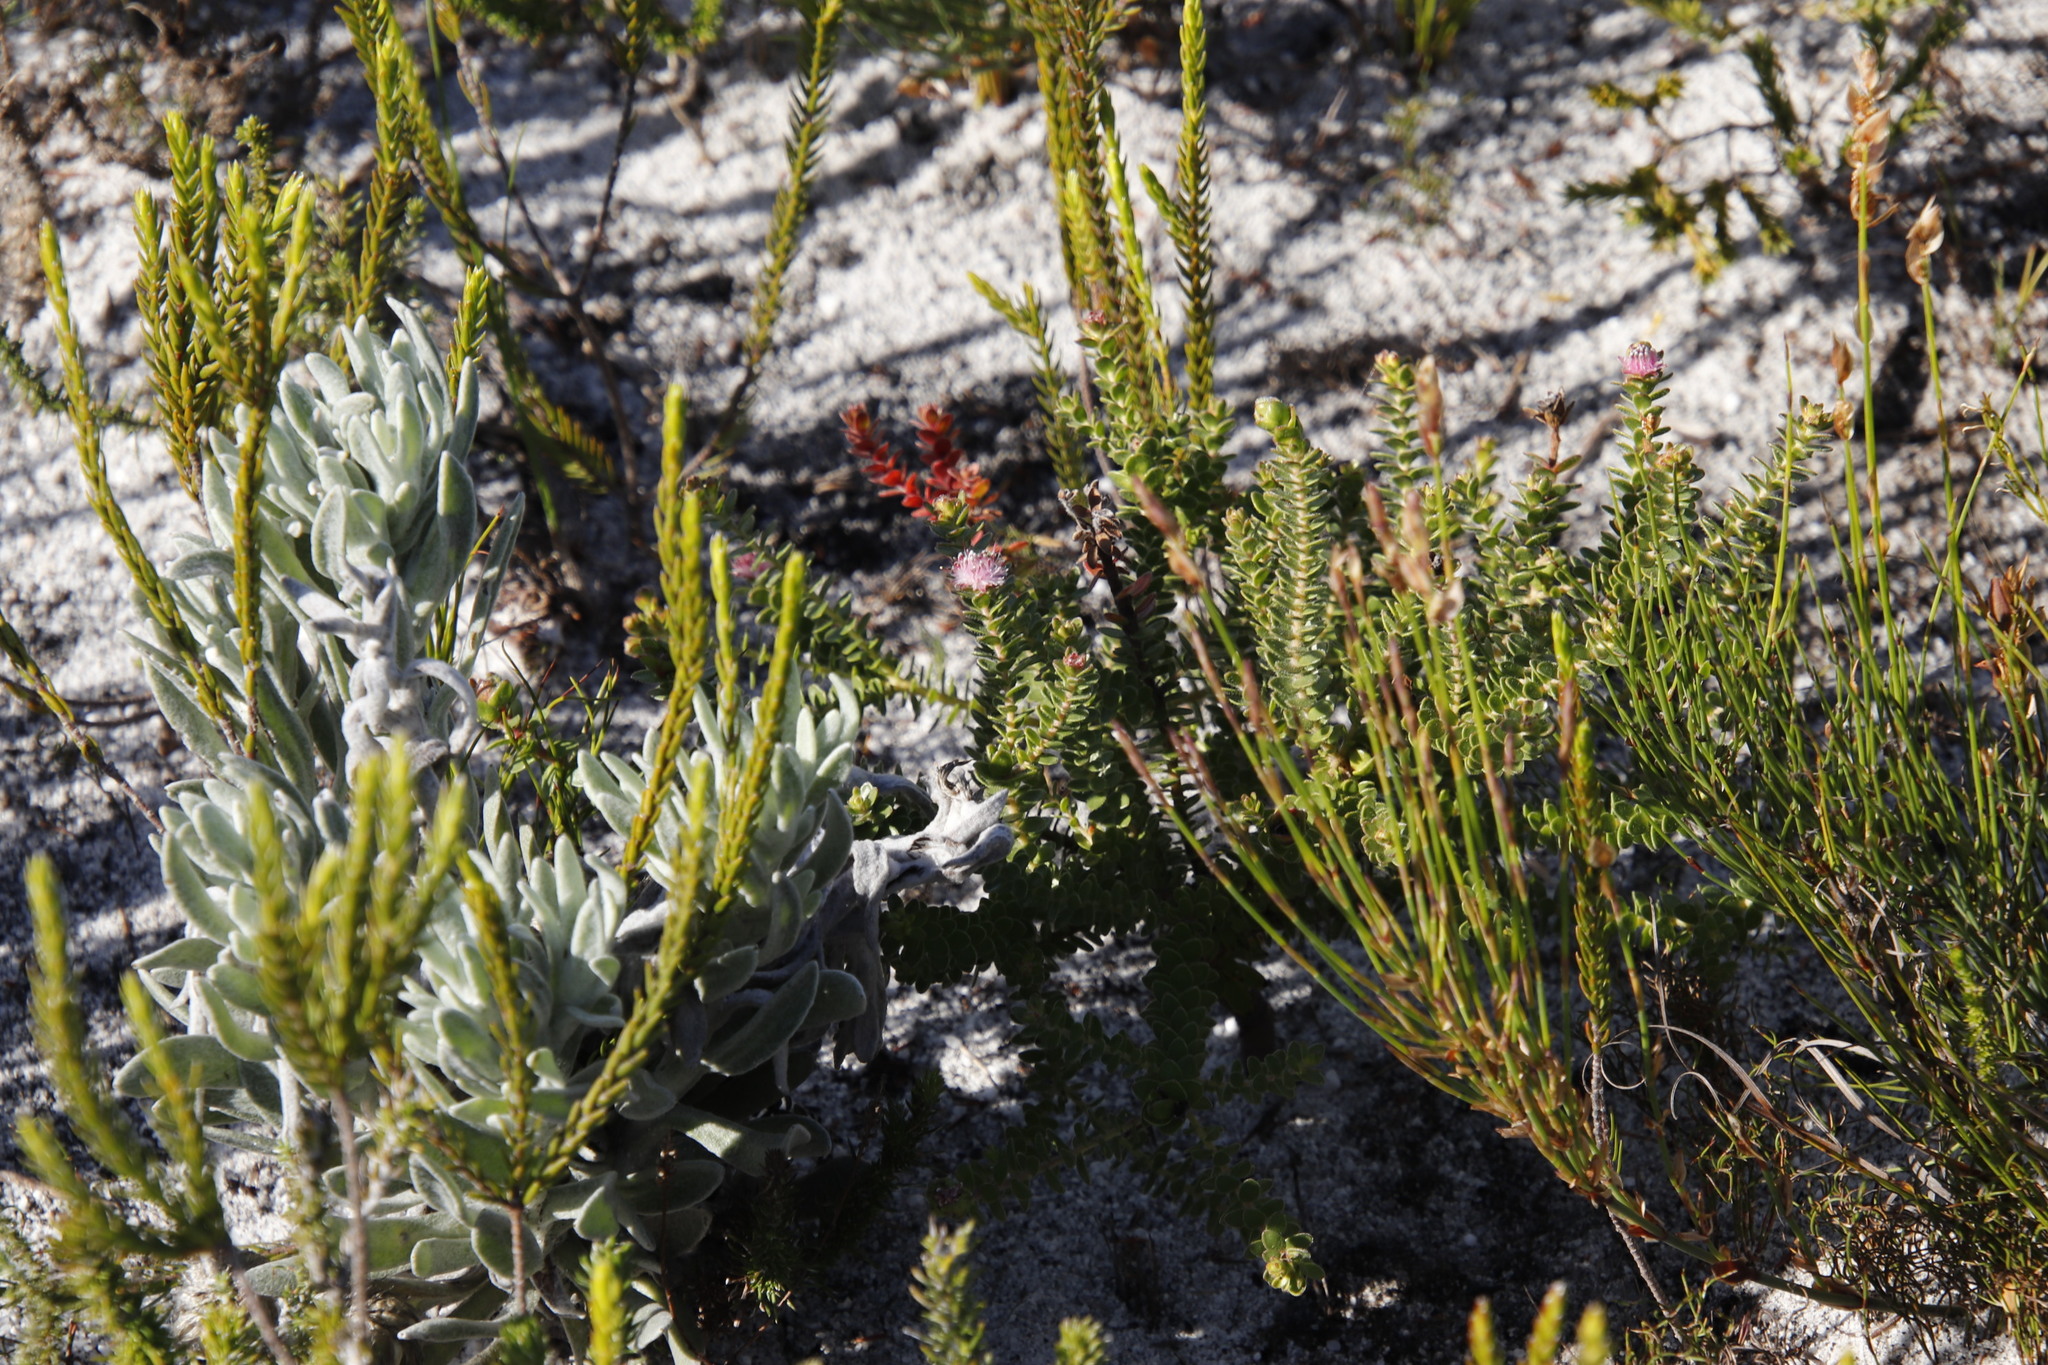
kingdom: Plantae
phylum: Tracheophyta
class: Magnoliopsida
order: Proteales
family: Proteaceae
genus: Diastella
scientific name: Diastella divaricata
